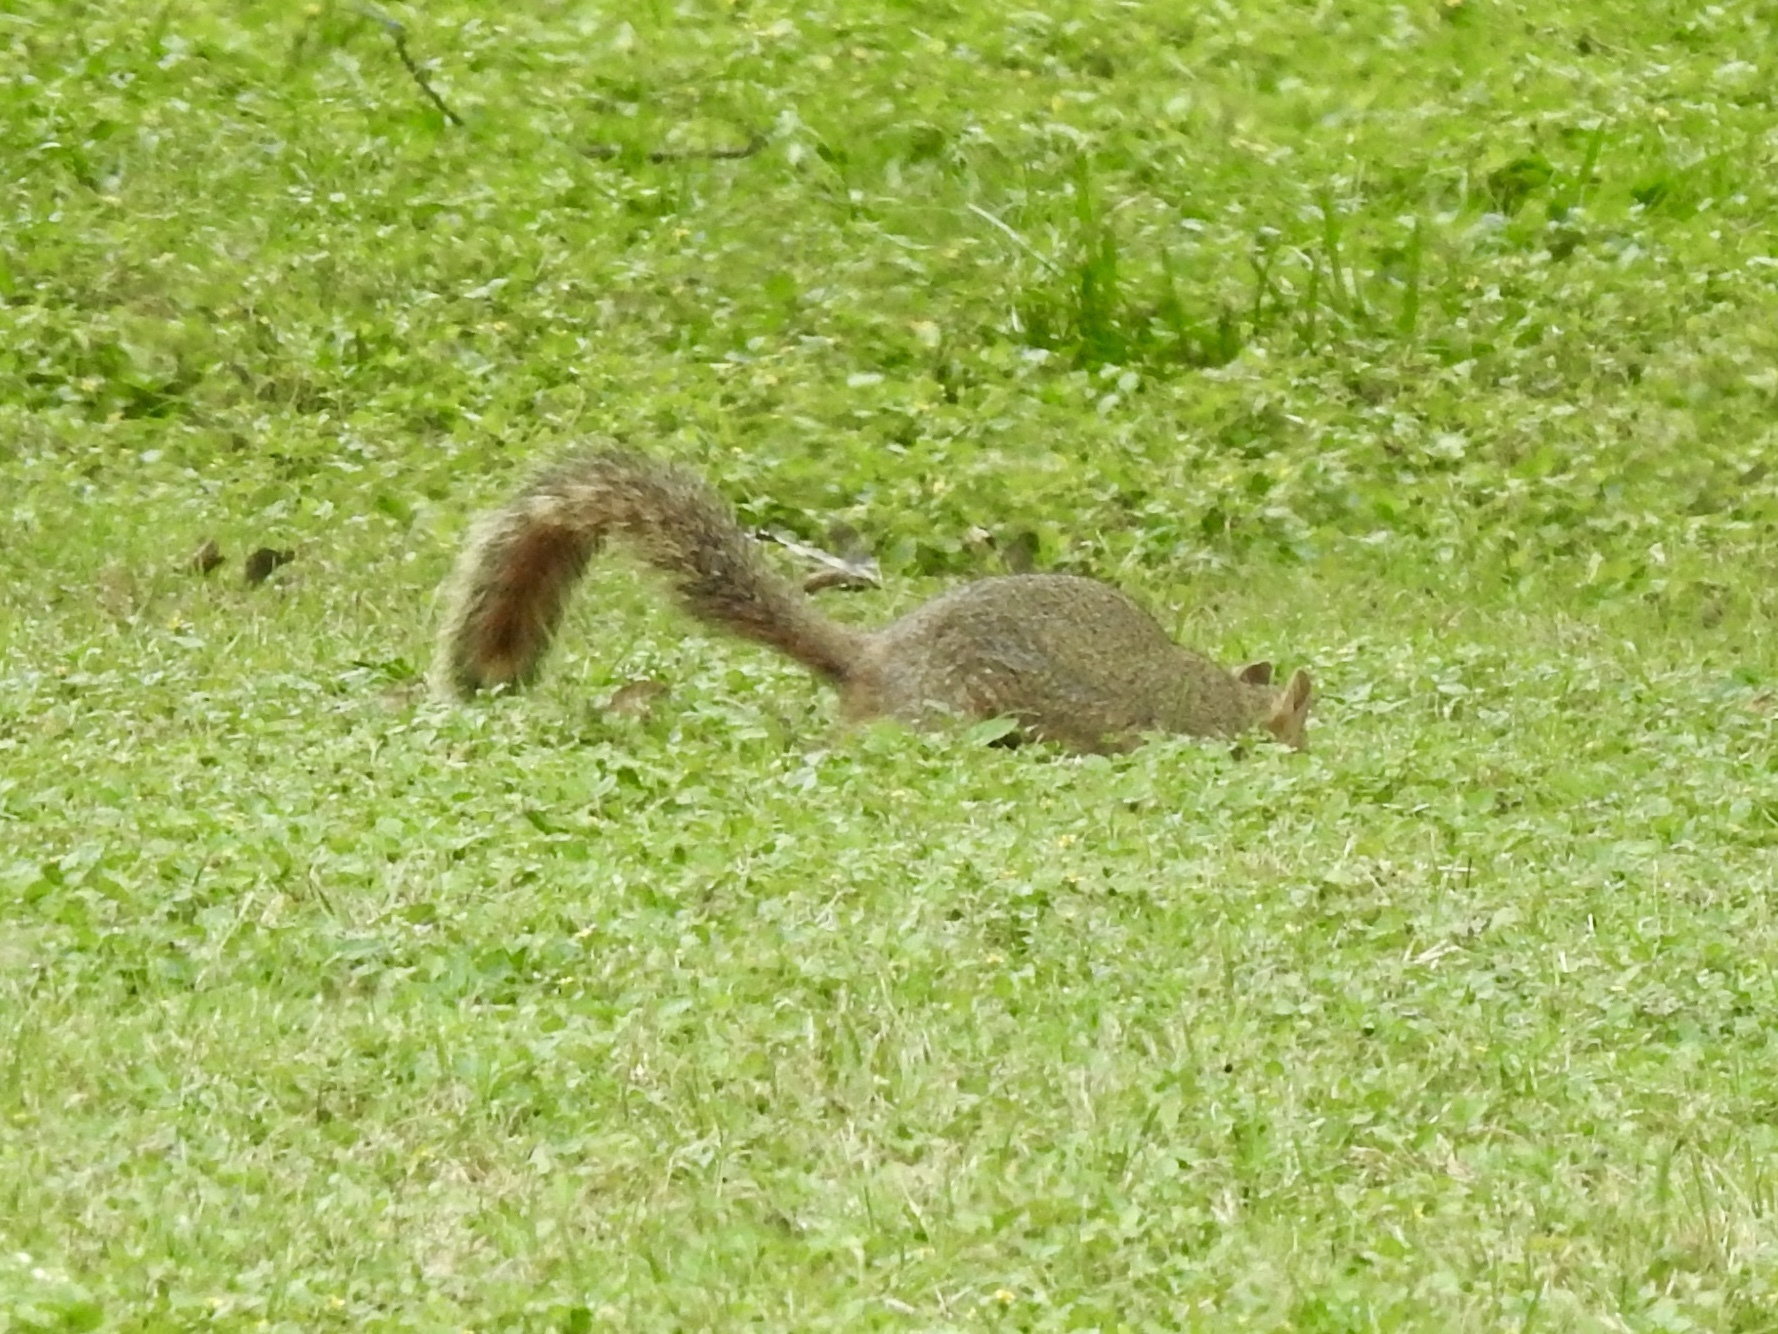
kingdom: Animalia
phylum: Chordata
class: Mammalia
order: Rodentia
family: Sciuridae
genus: Sciurus
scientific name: Sciurus niger
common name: Fox squirrel
